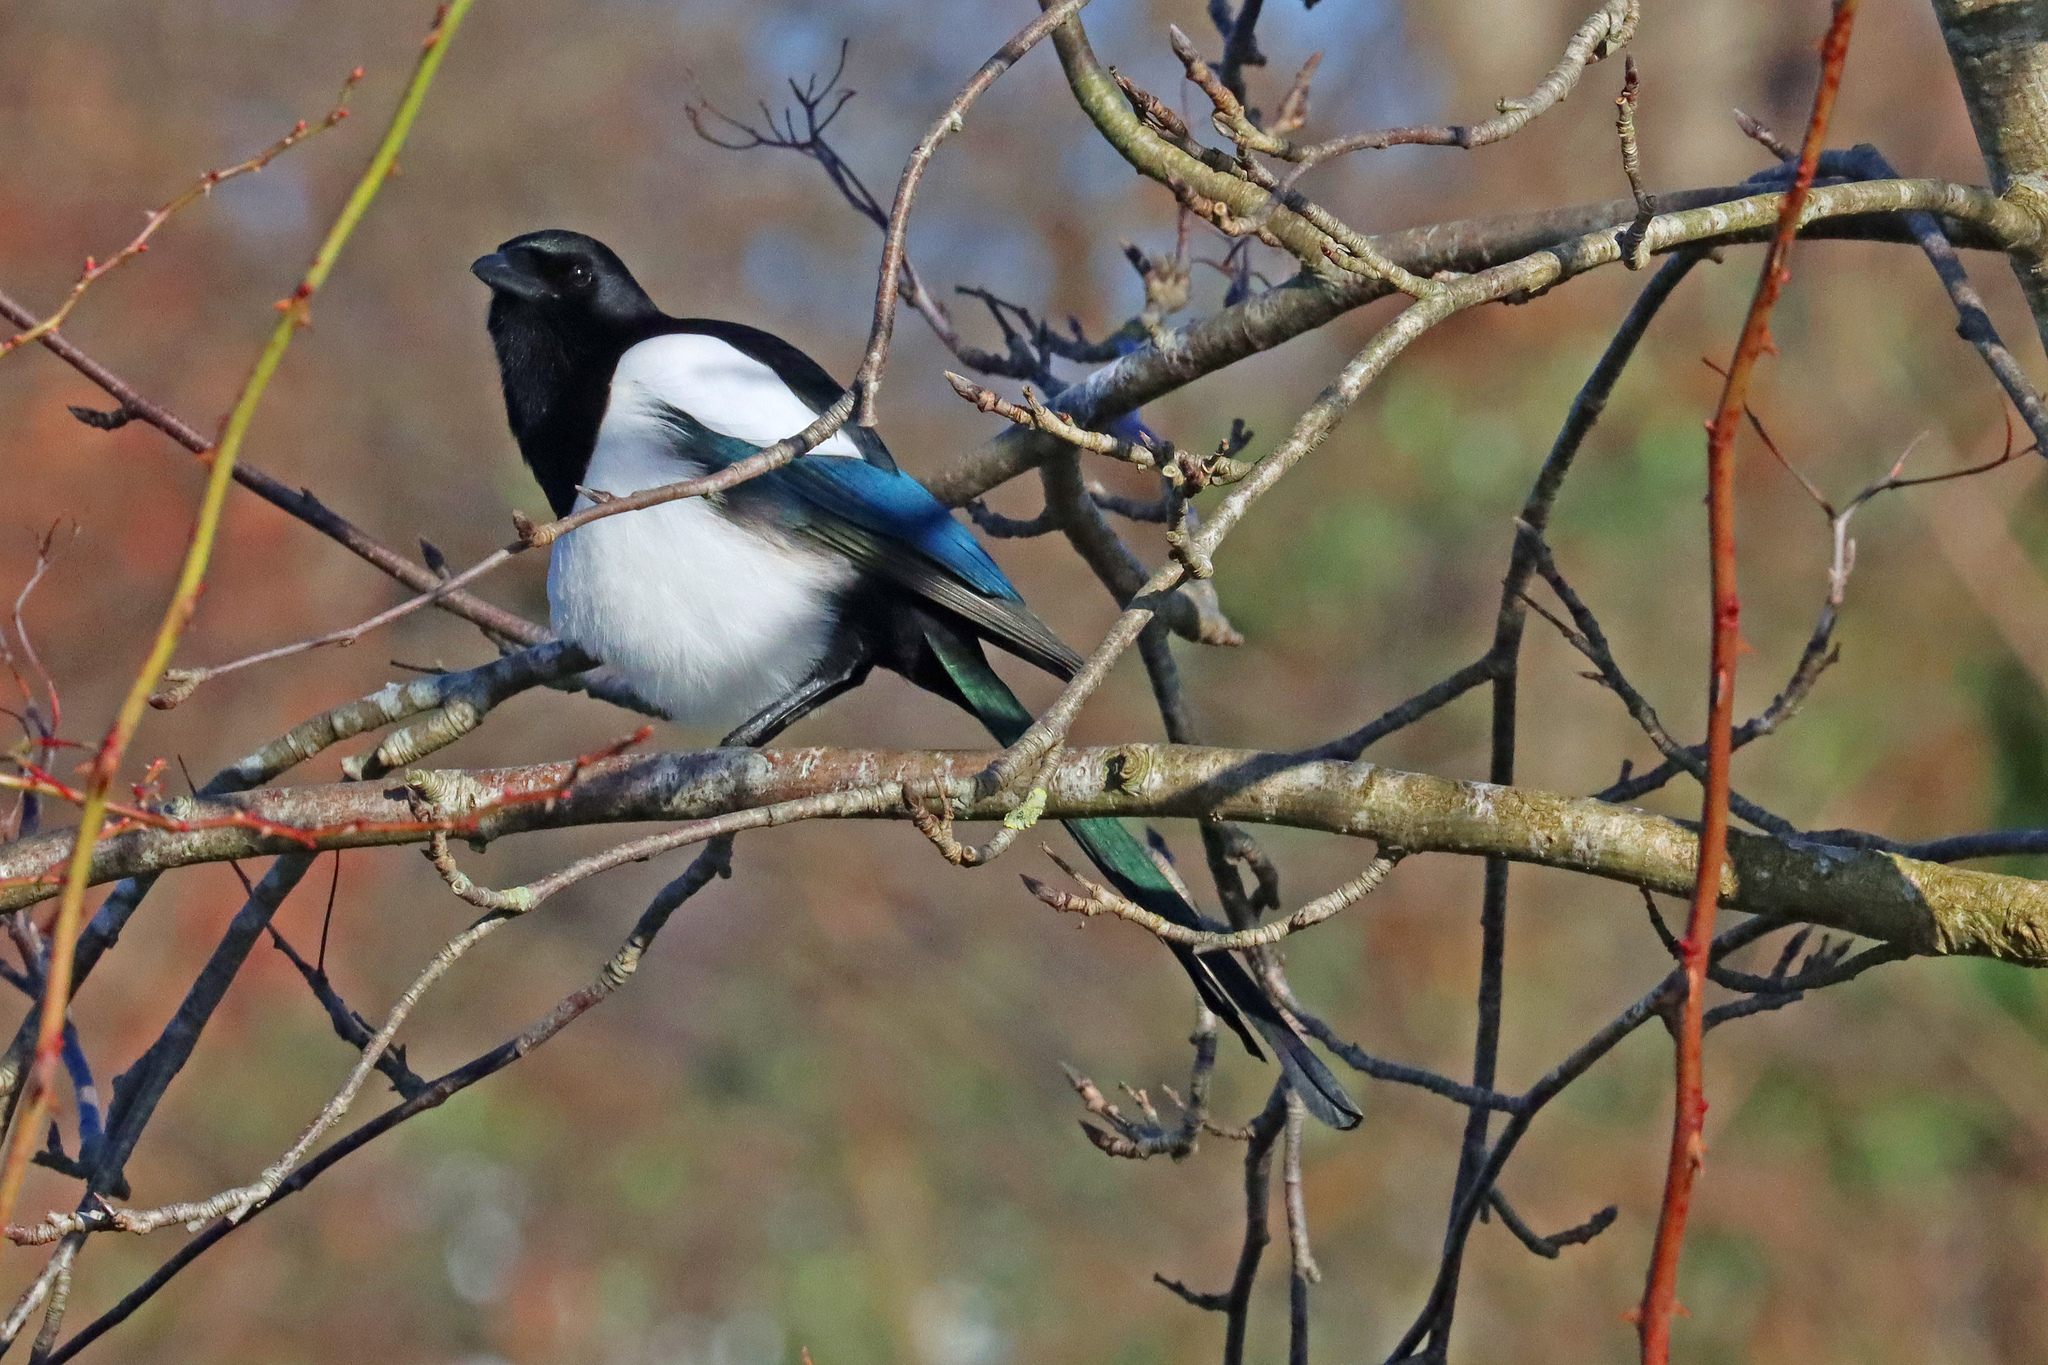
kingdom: Animalia
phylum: Chordata
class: Aves
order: Passeriformes
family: Corvidae
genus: Pica
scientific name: Pica pica
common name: Eurasian magpie
